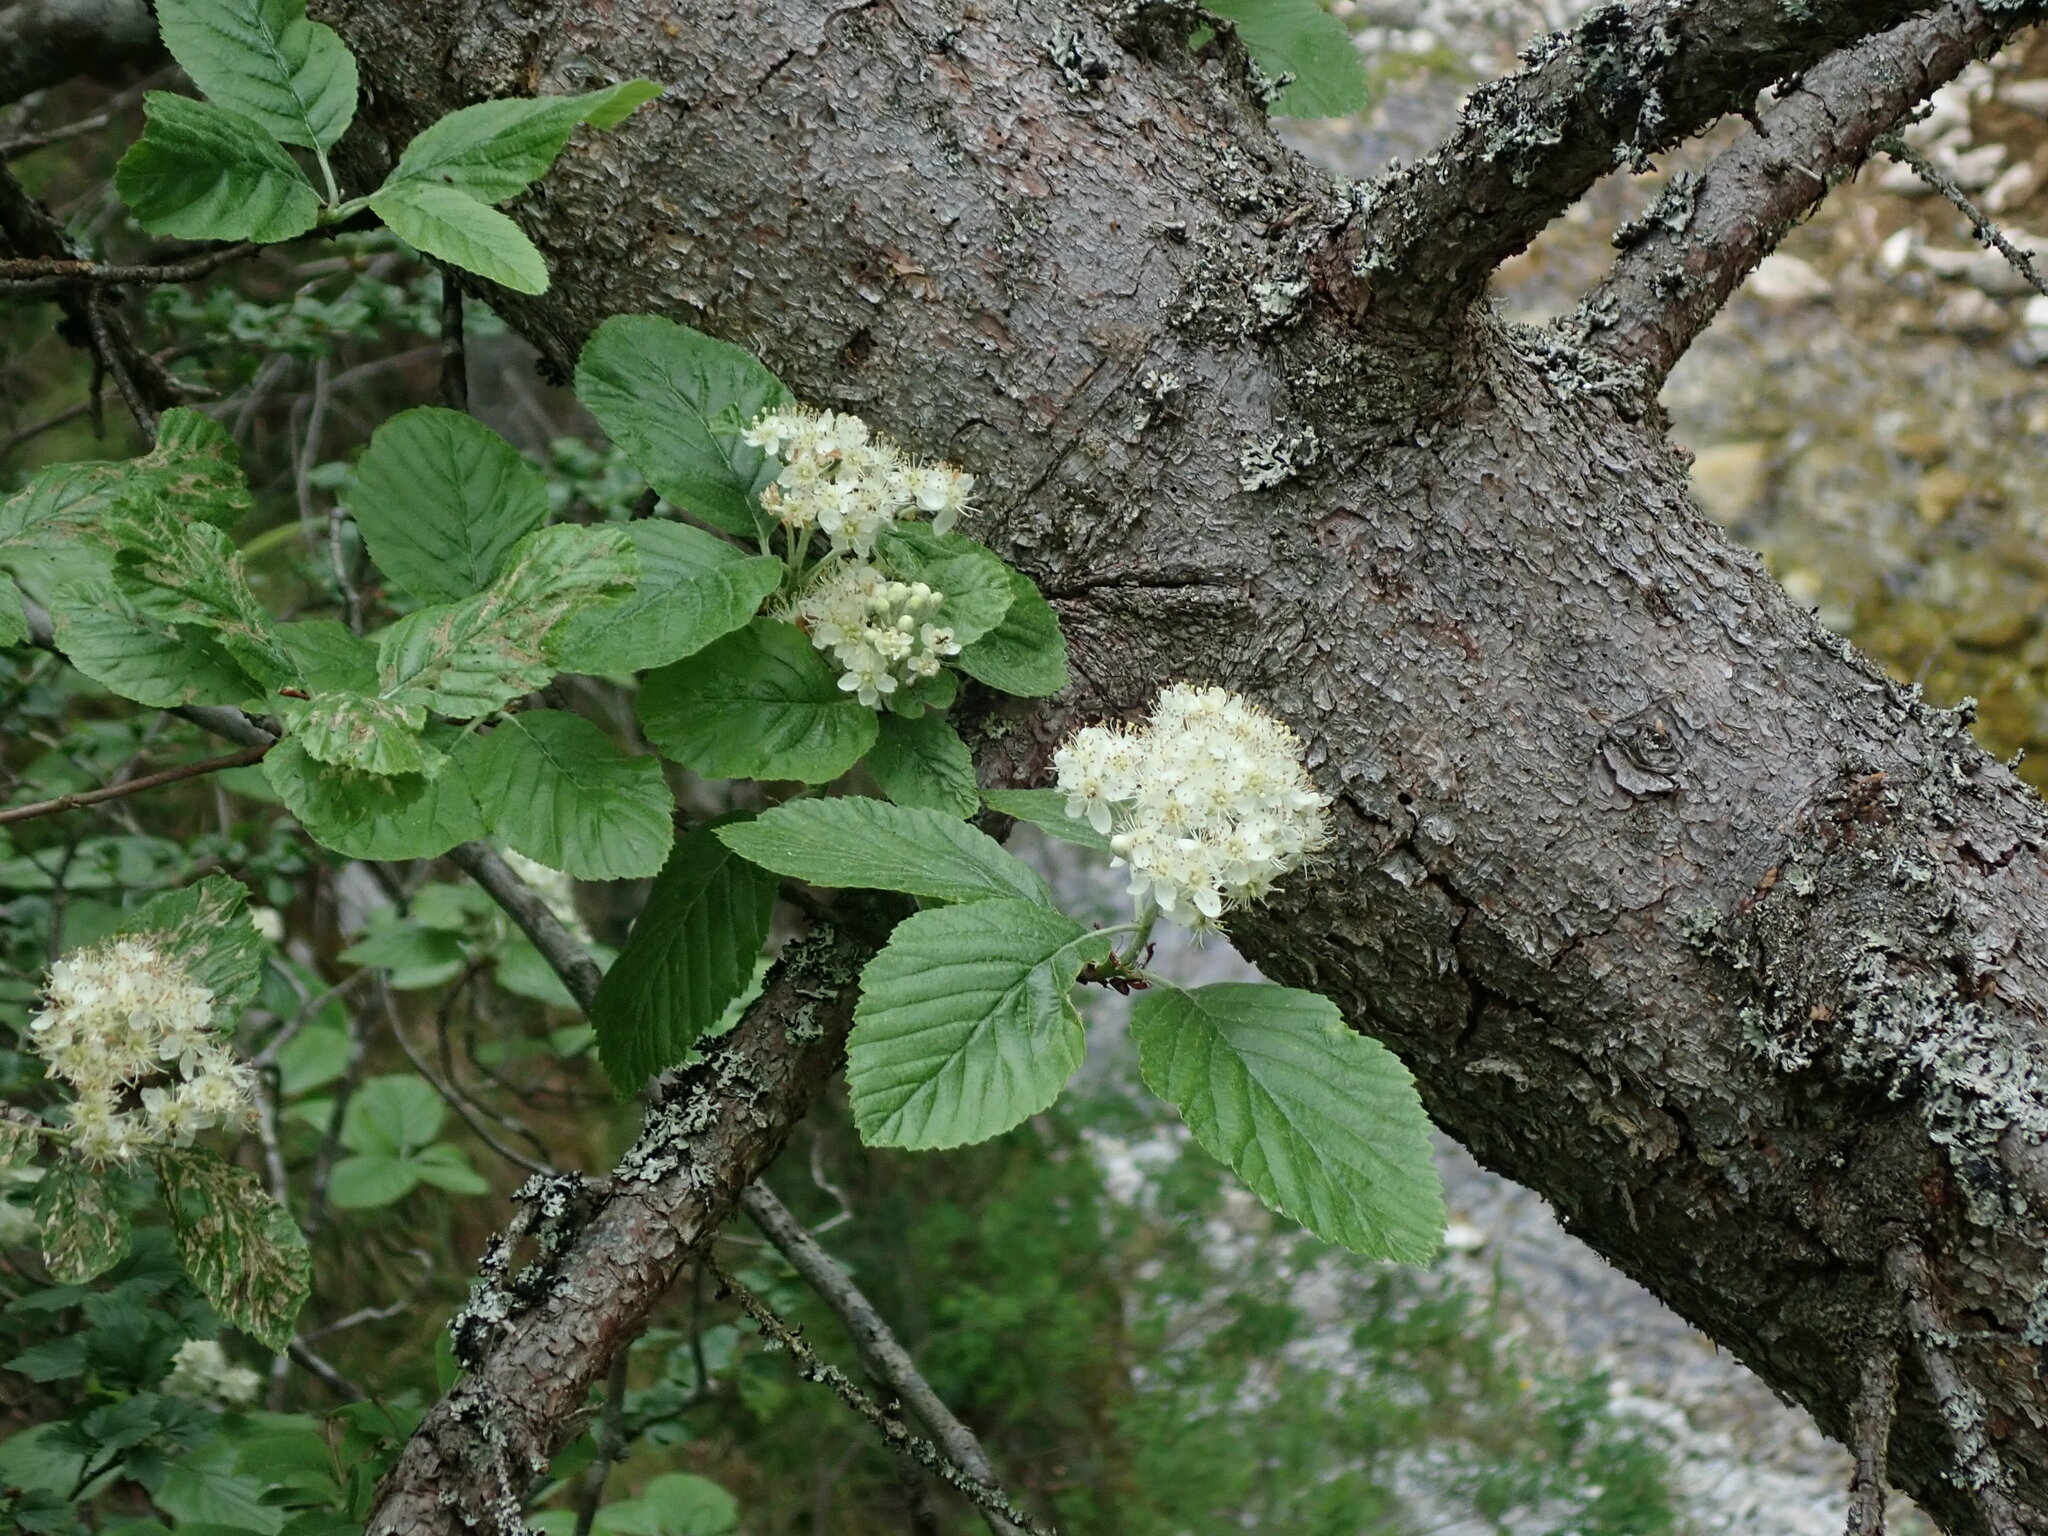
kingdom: Plantae
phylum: Tracheophyta
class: Magnoliopsida
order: Rosales
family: Rosaceae
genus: Aria
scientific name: Aria edulis
